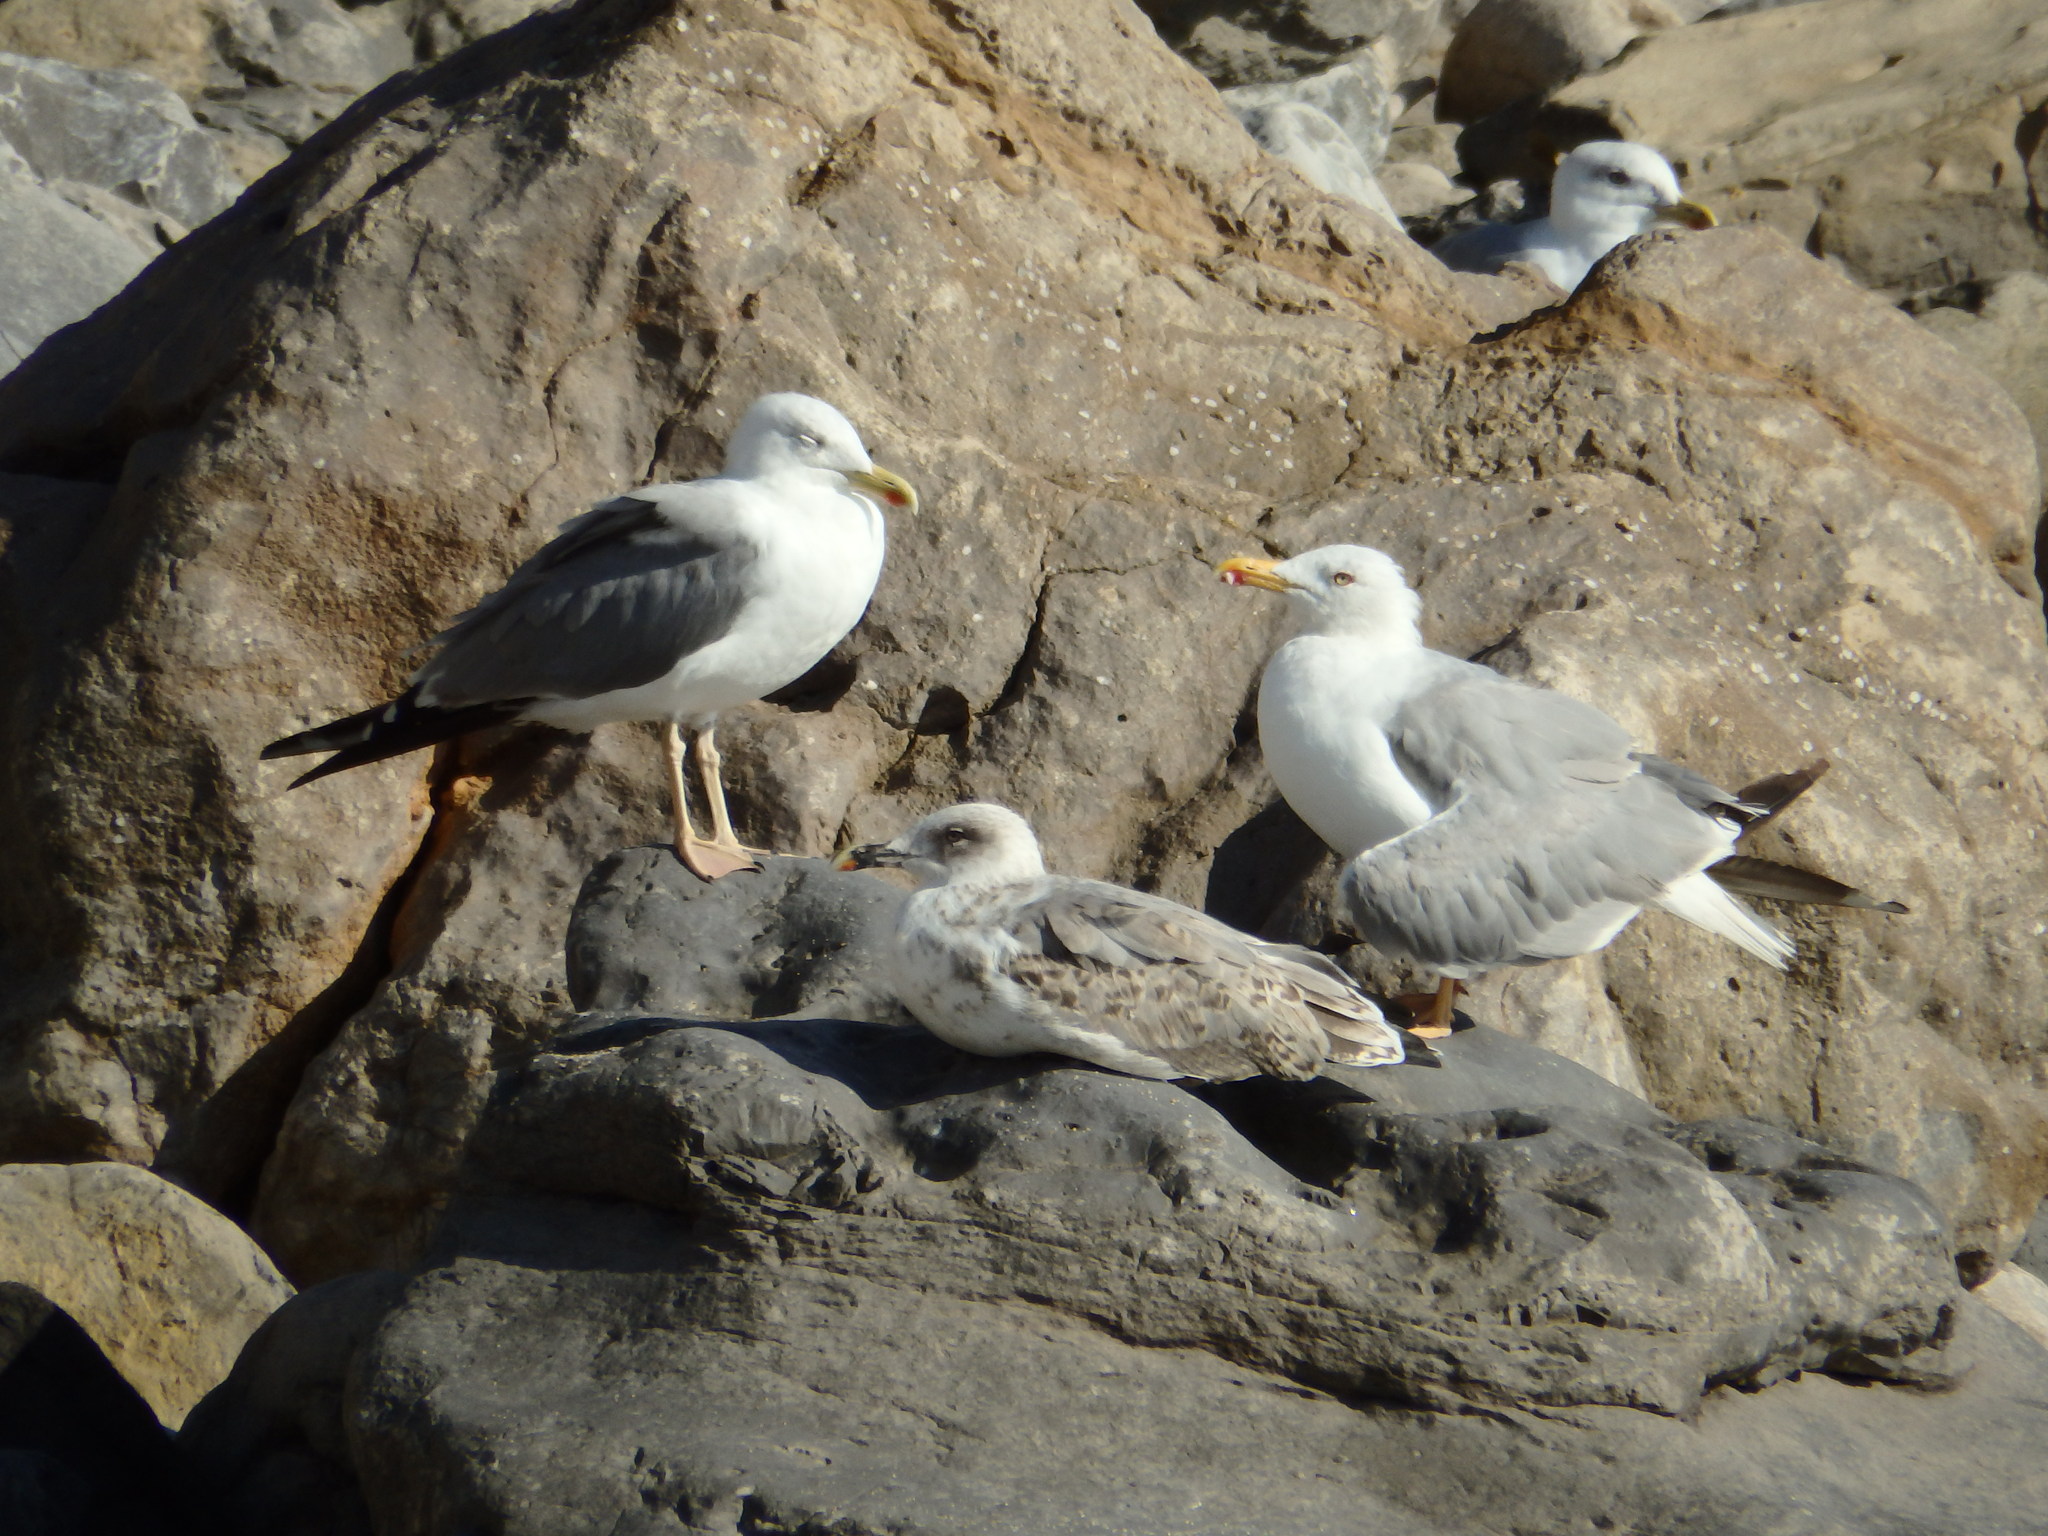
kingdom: Animalia
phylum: Chordata
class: Aves
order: Charadriiformes
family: Laridae
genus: Larus
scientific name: Larus michahellis
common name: Yellow-legged gull
